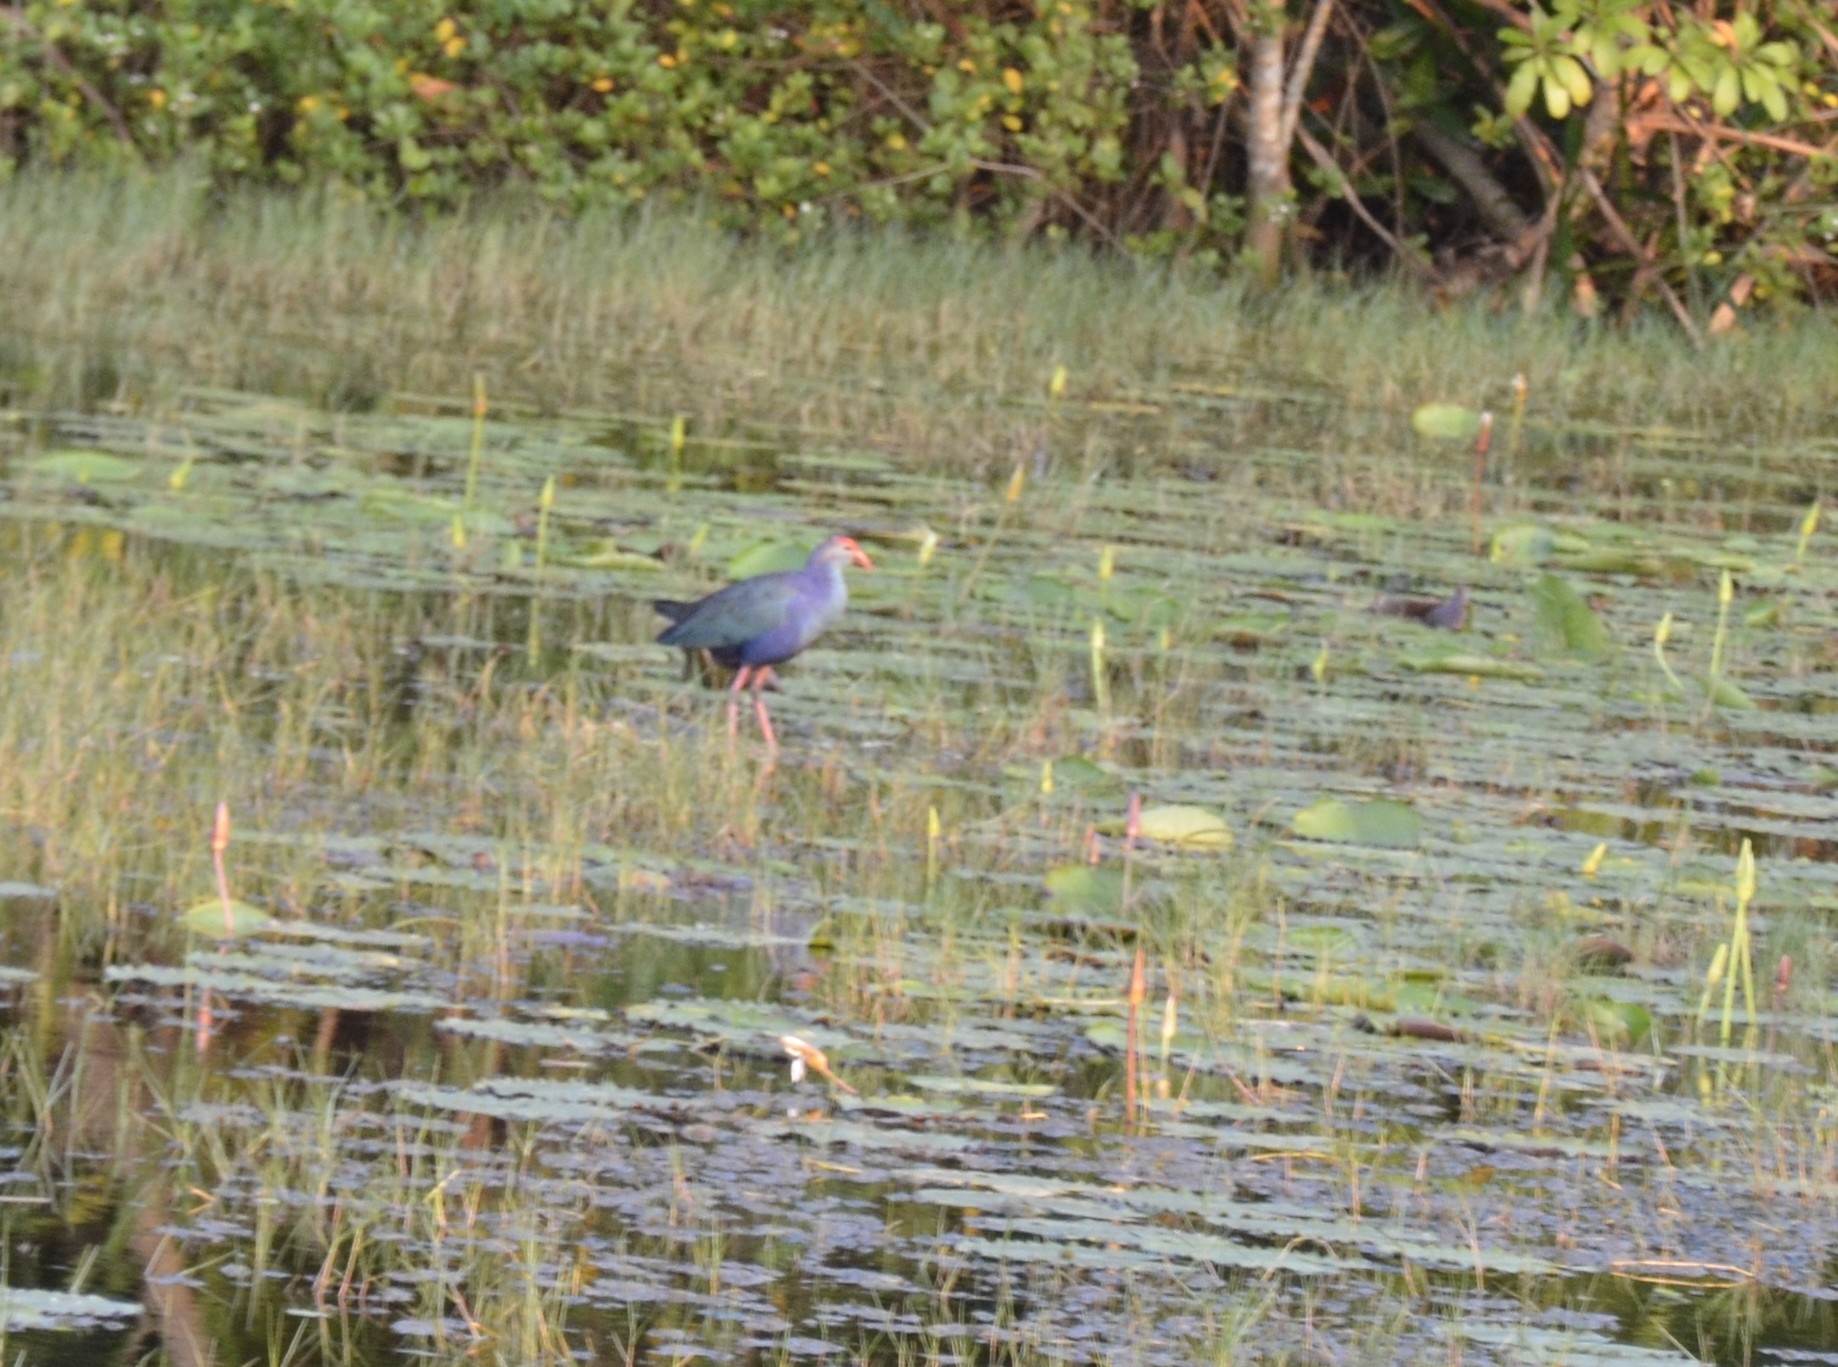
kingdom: Animalia
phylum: Chordata
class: Aves
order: Gruiformes
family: Rallidae
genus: Porphyrio
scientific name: Porphyrio porphyrio
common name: Purple swamphen
